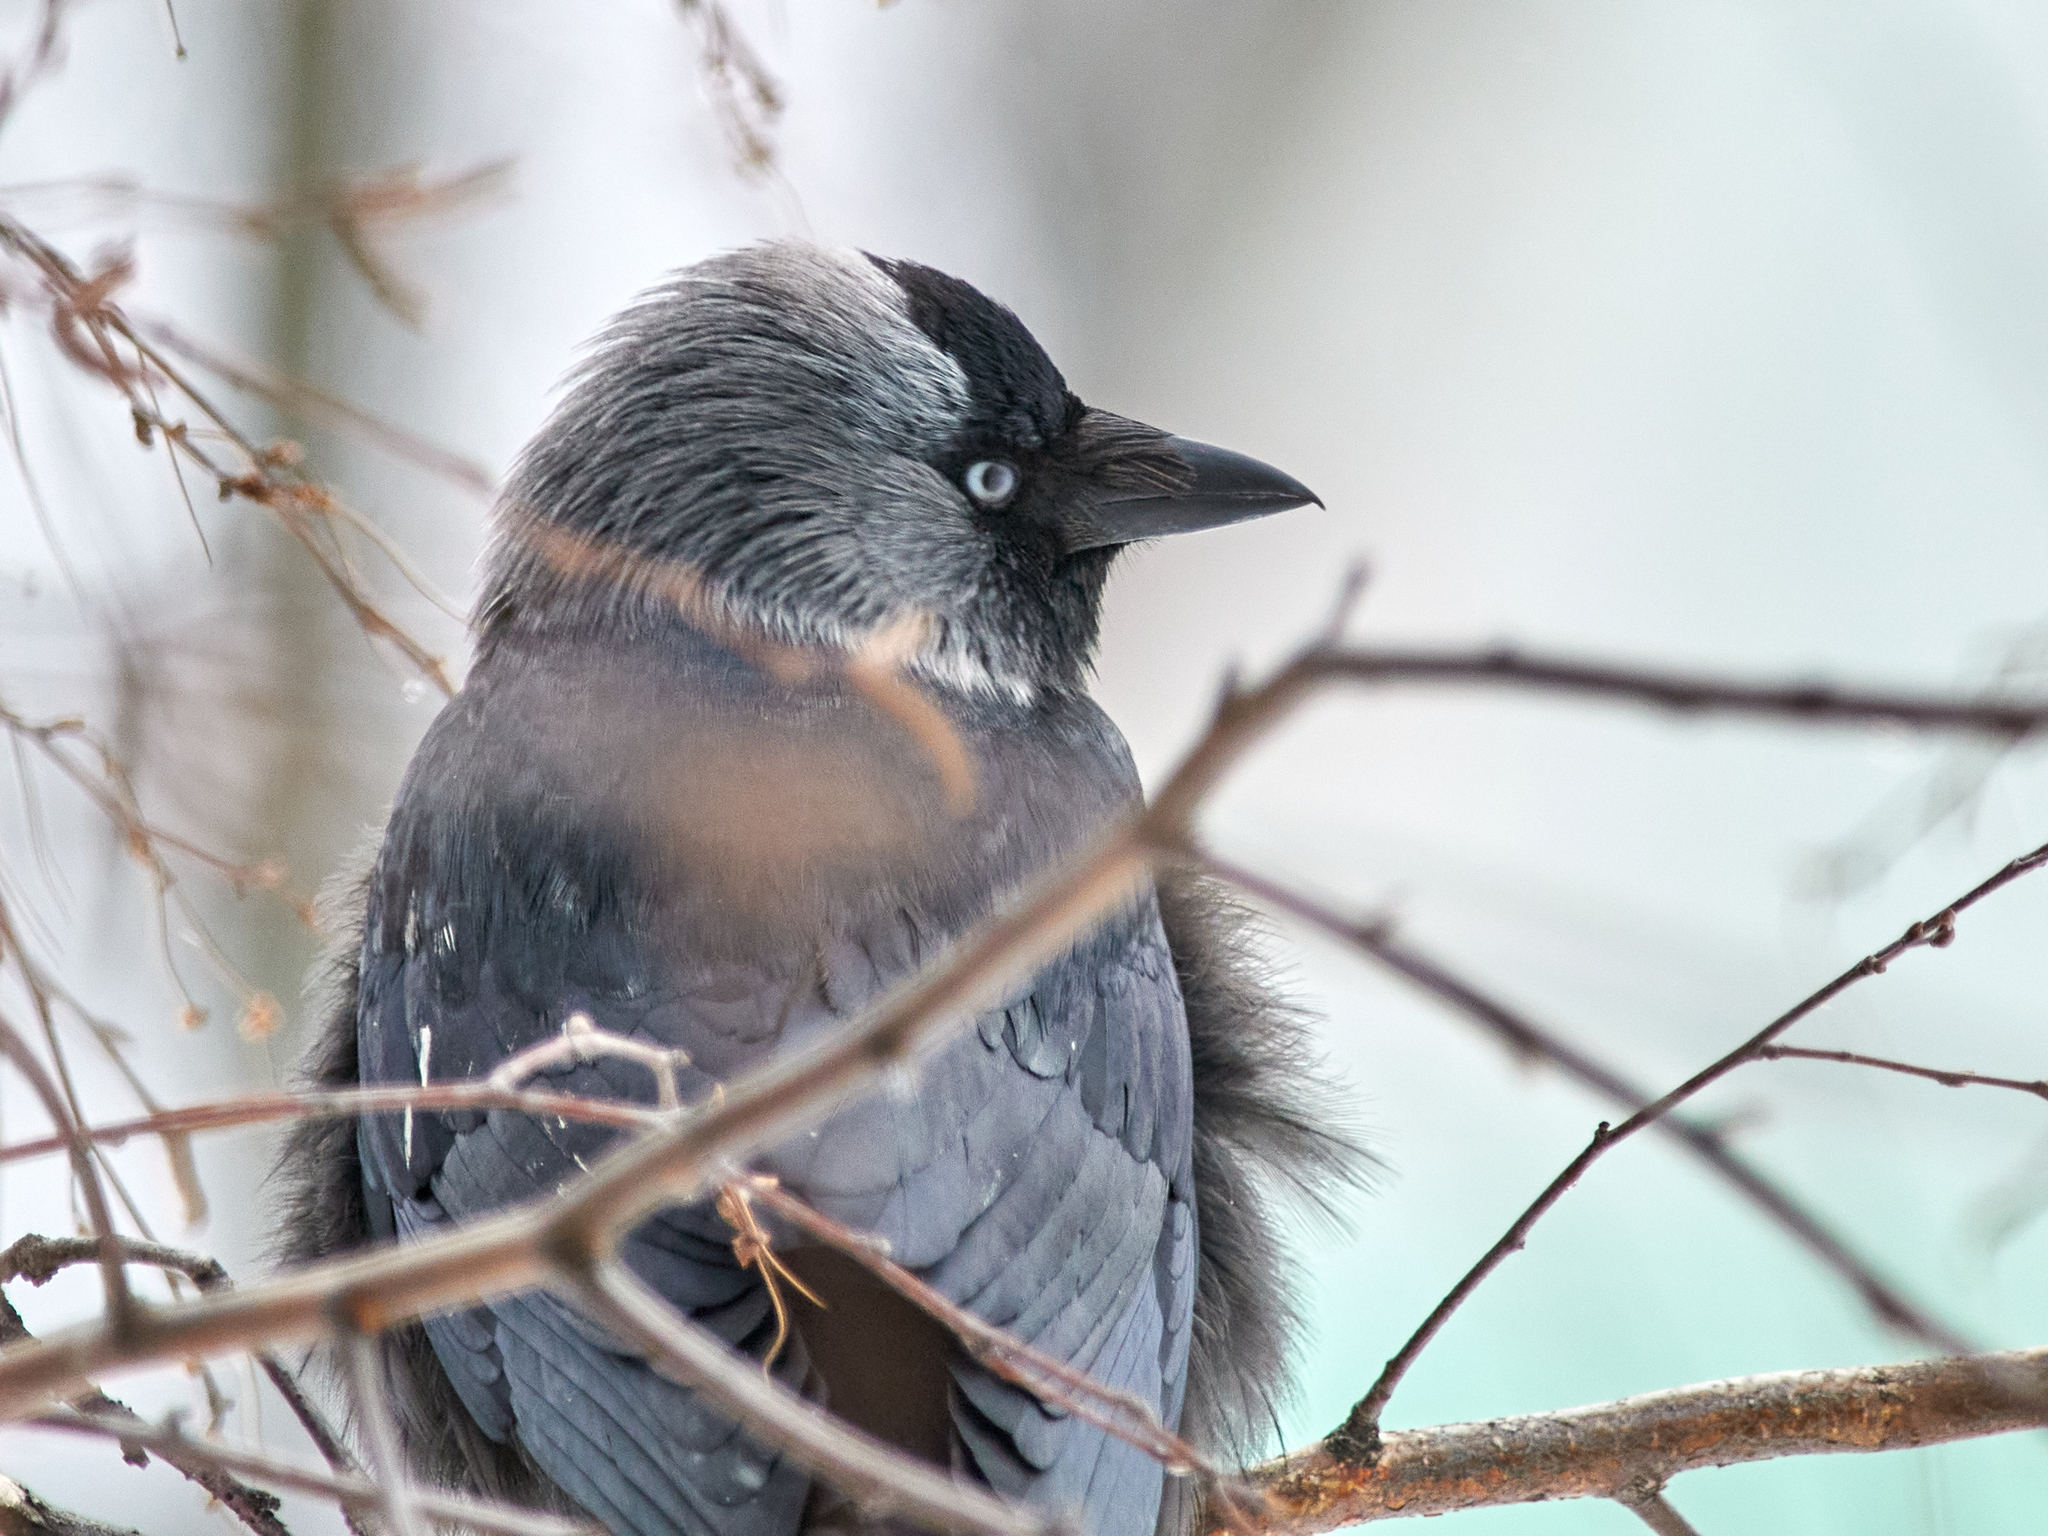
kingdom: Animalia
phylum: Chordata
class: Aves
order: Passeriformes
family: Corvidae
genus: Coloeus
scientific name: Coloeus monedula
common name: Western jackdaw
